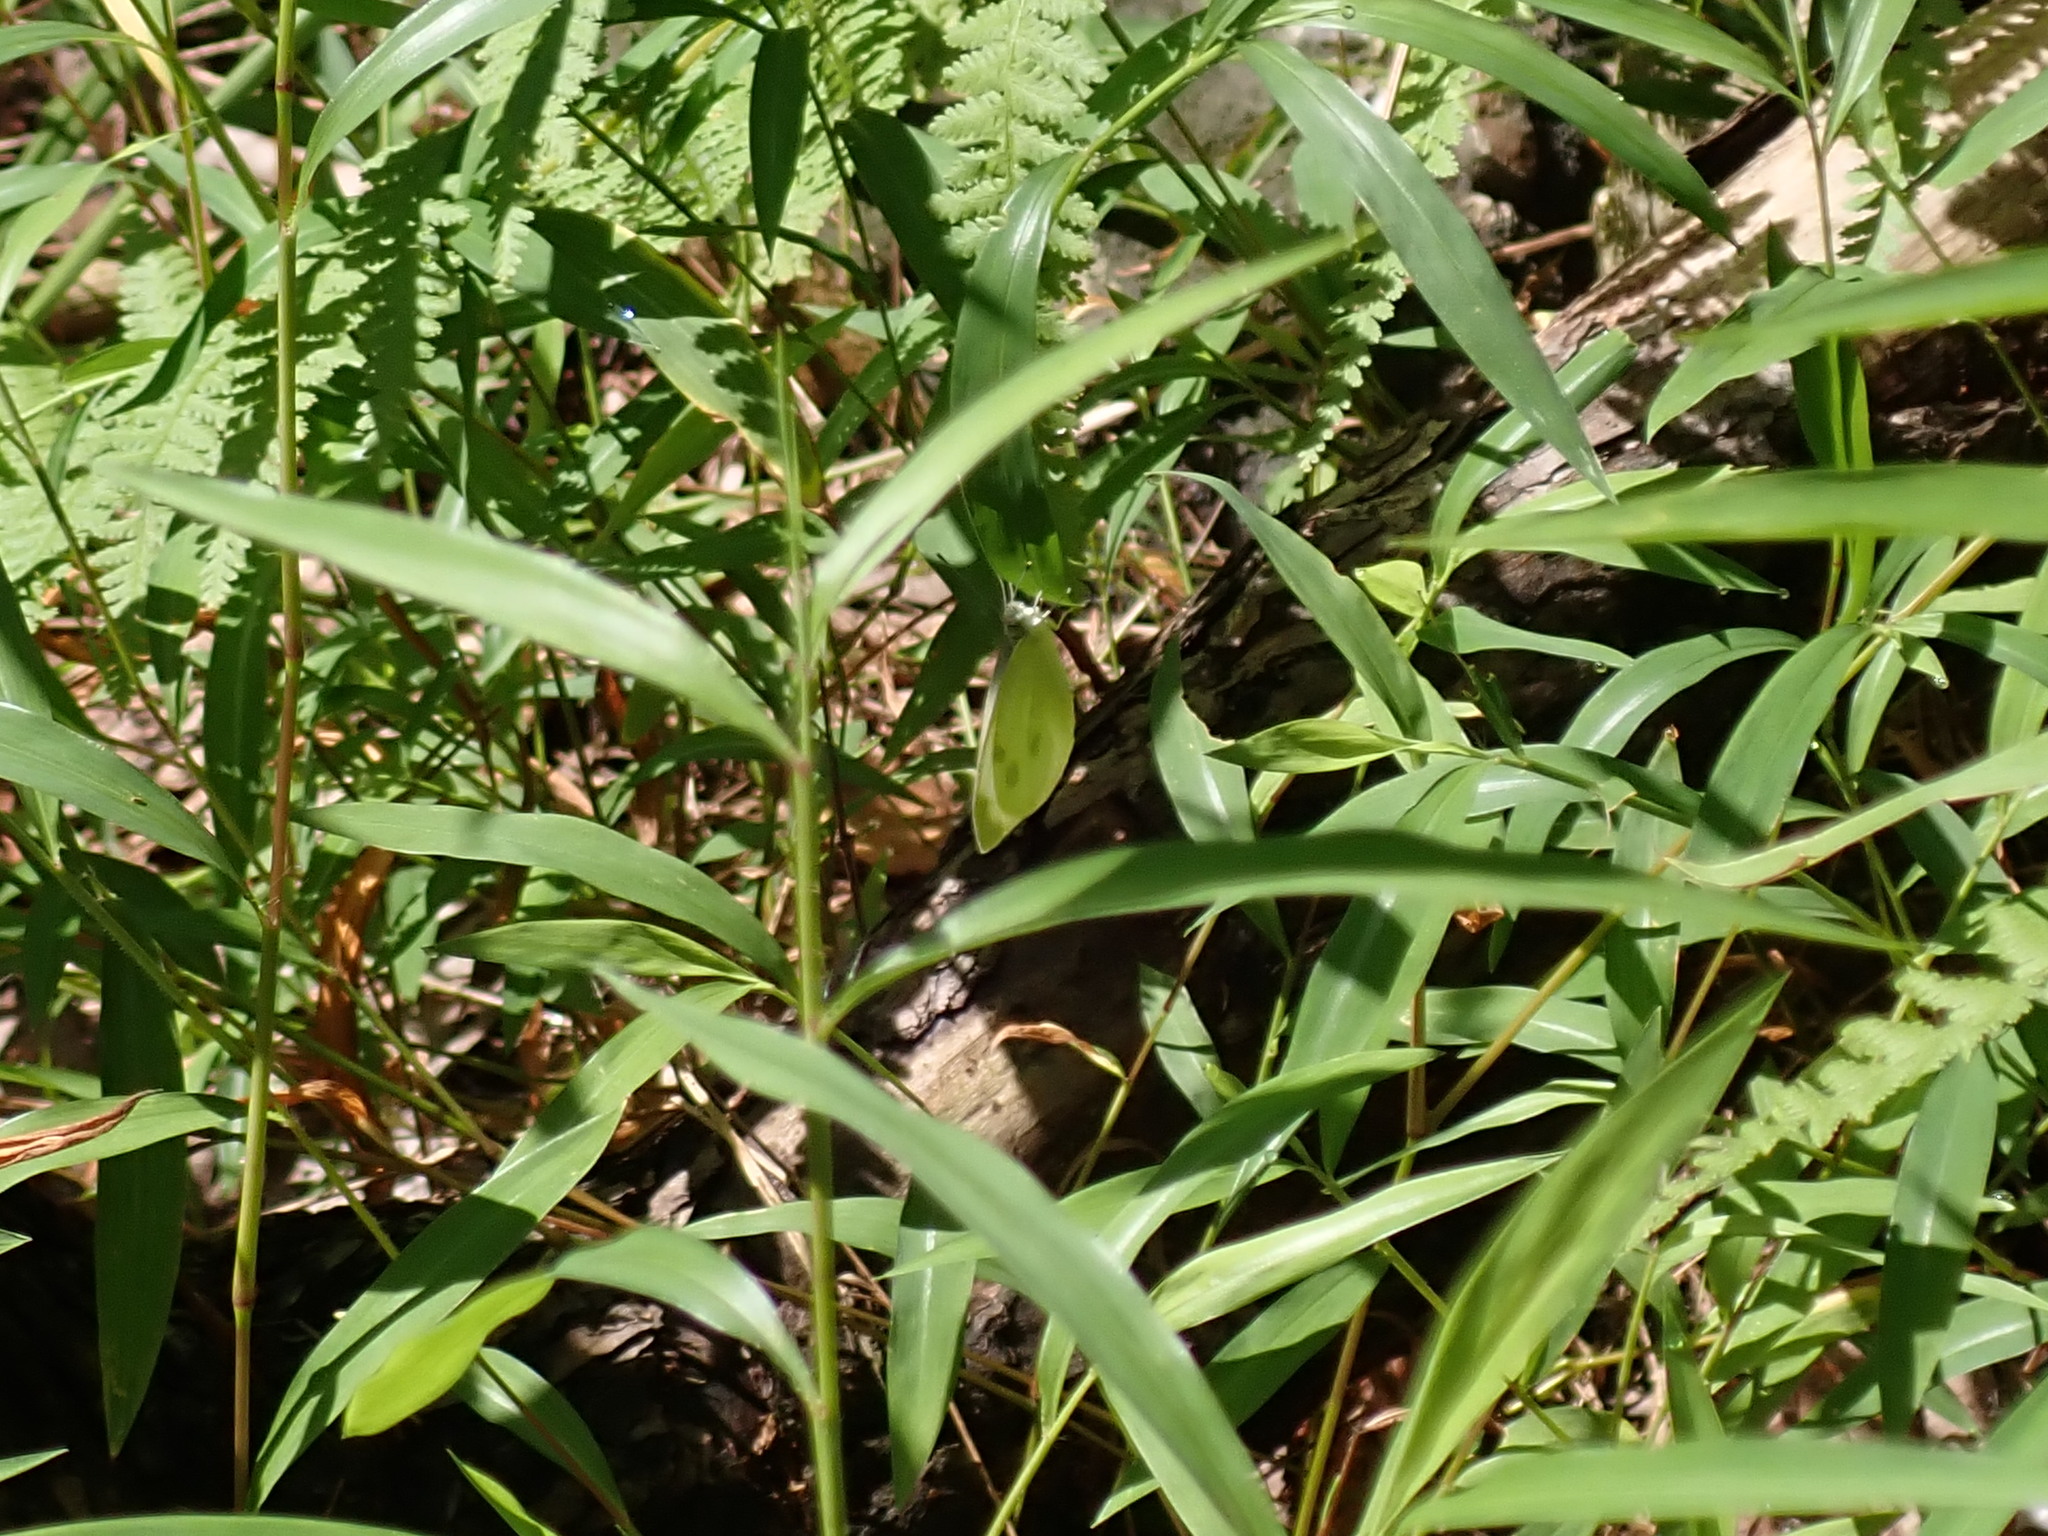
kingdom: Animalia
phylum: Arthropoda
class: Insecta
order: Lepidoptera
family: Pieridae
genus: Pieris
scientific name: Pieris rapae
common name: Small white
